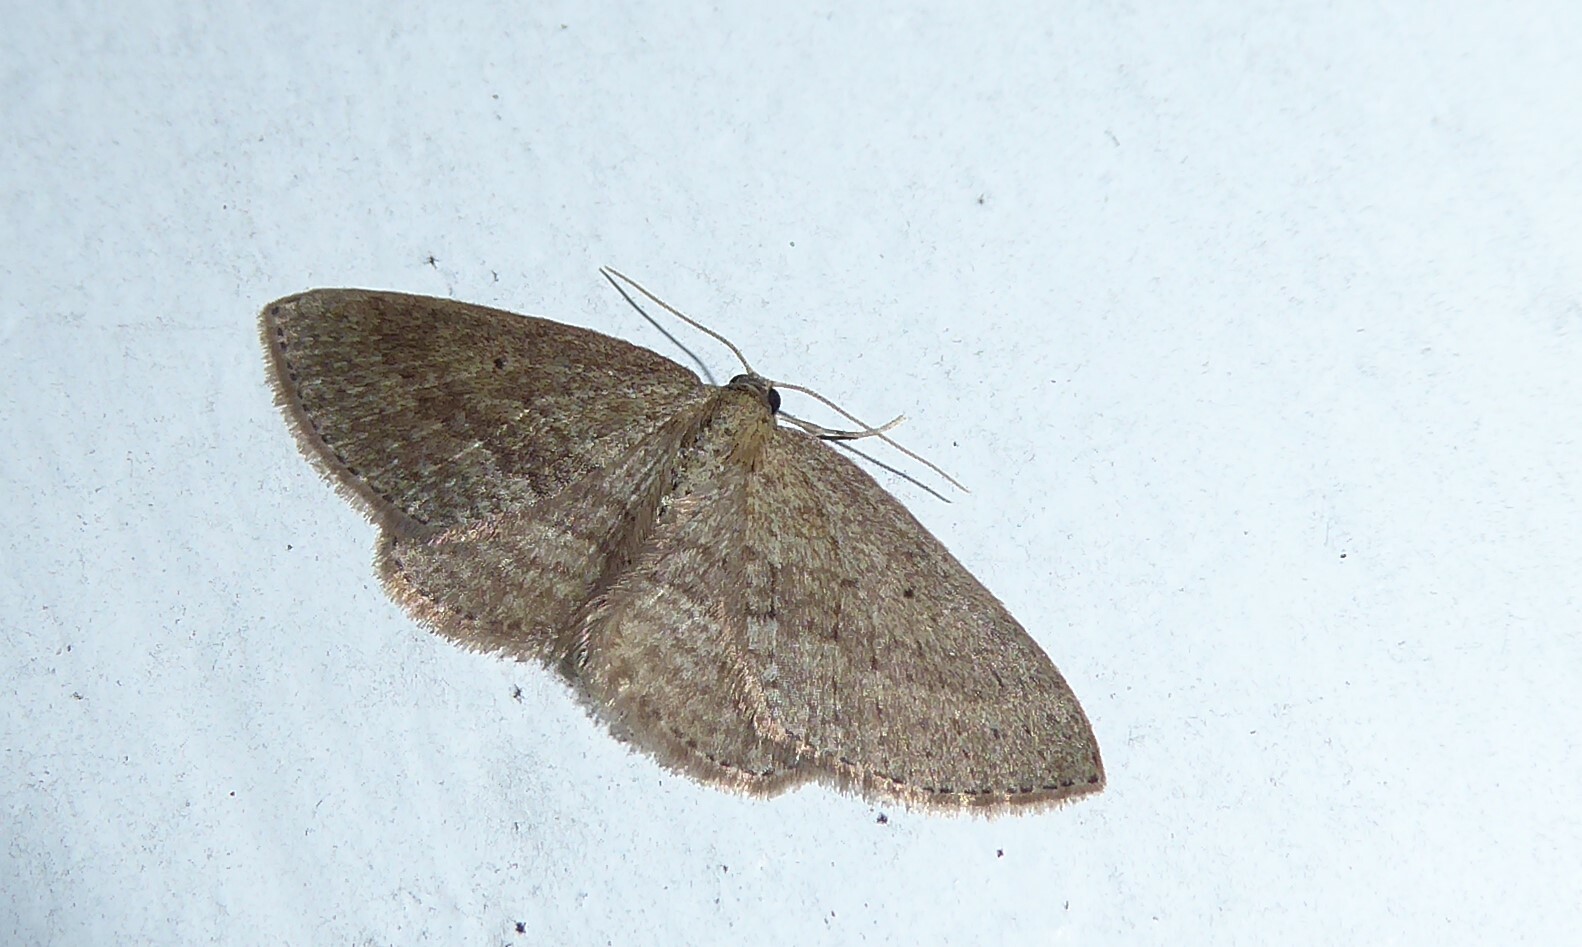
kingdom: Animalia
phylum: Arthropoda
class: Insecta
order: Lepidoptera
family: Geometridae
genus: Poecilasthena
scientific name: Poecilasthena schistaria
